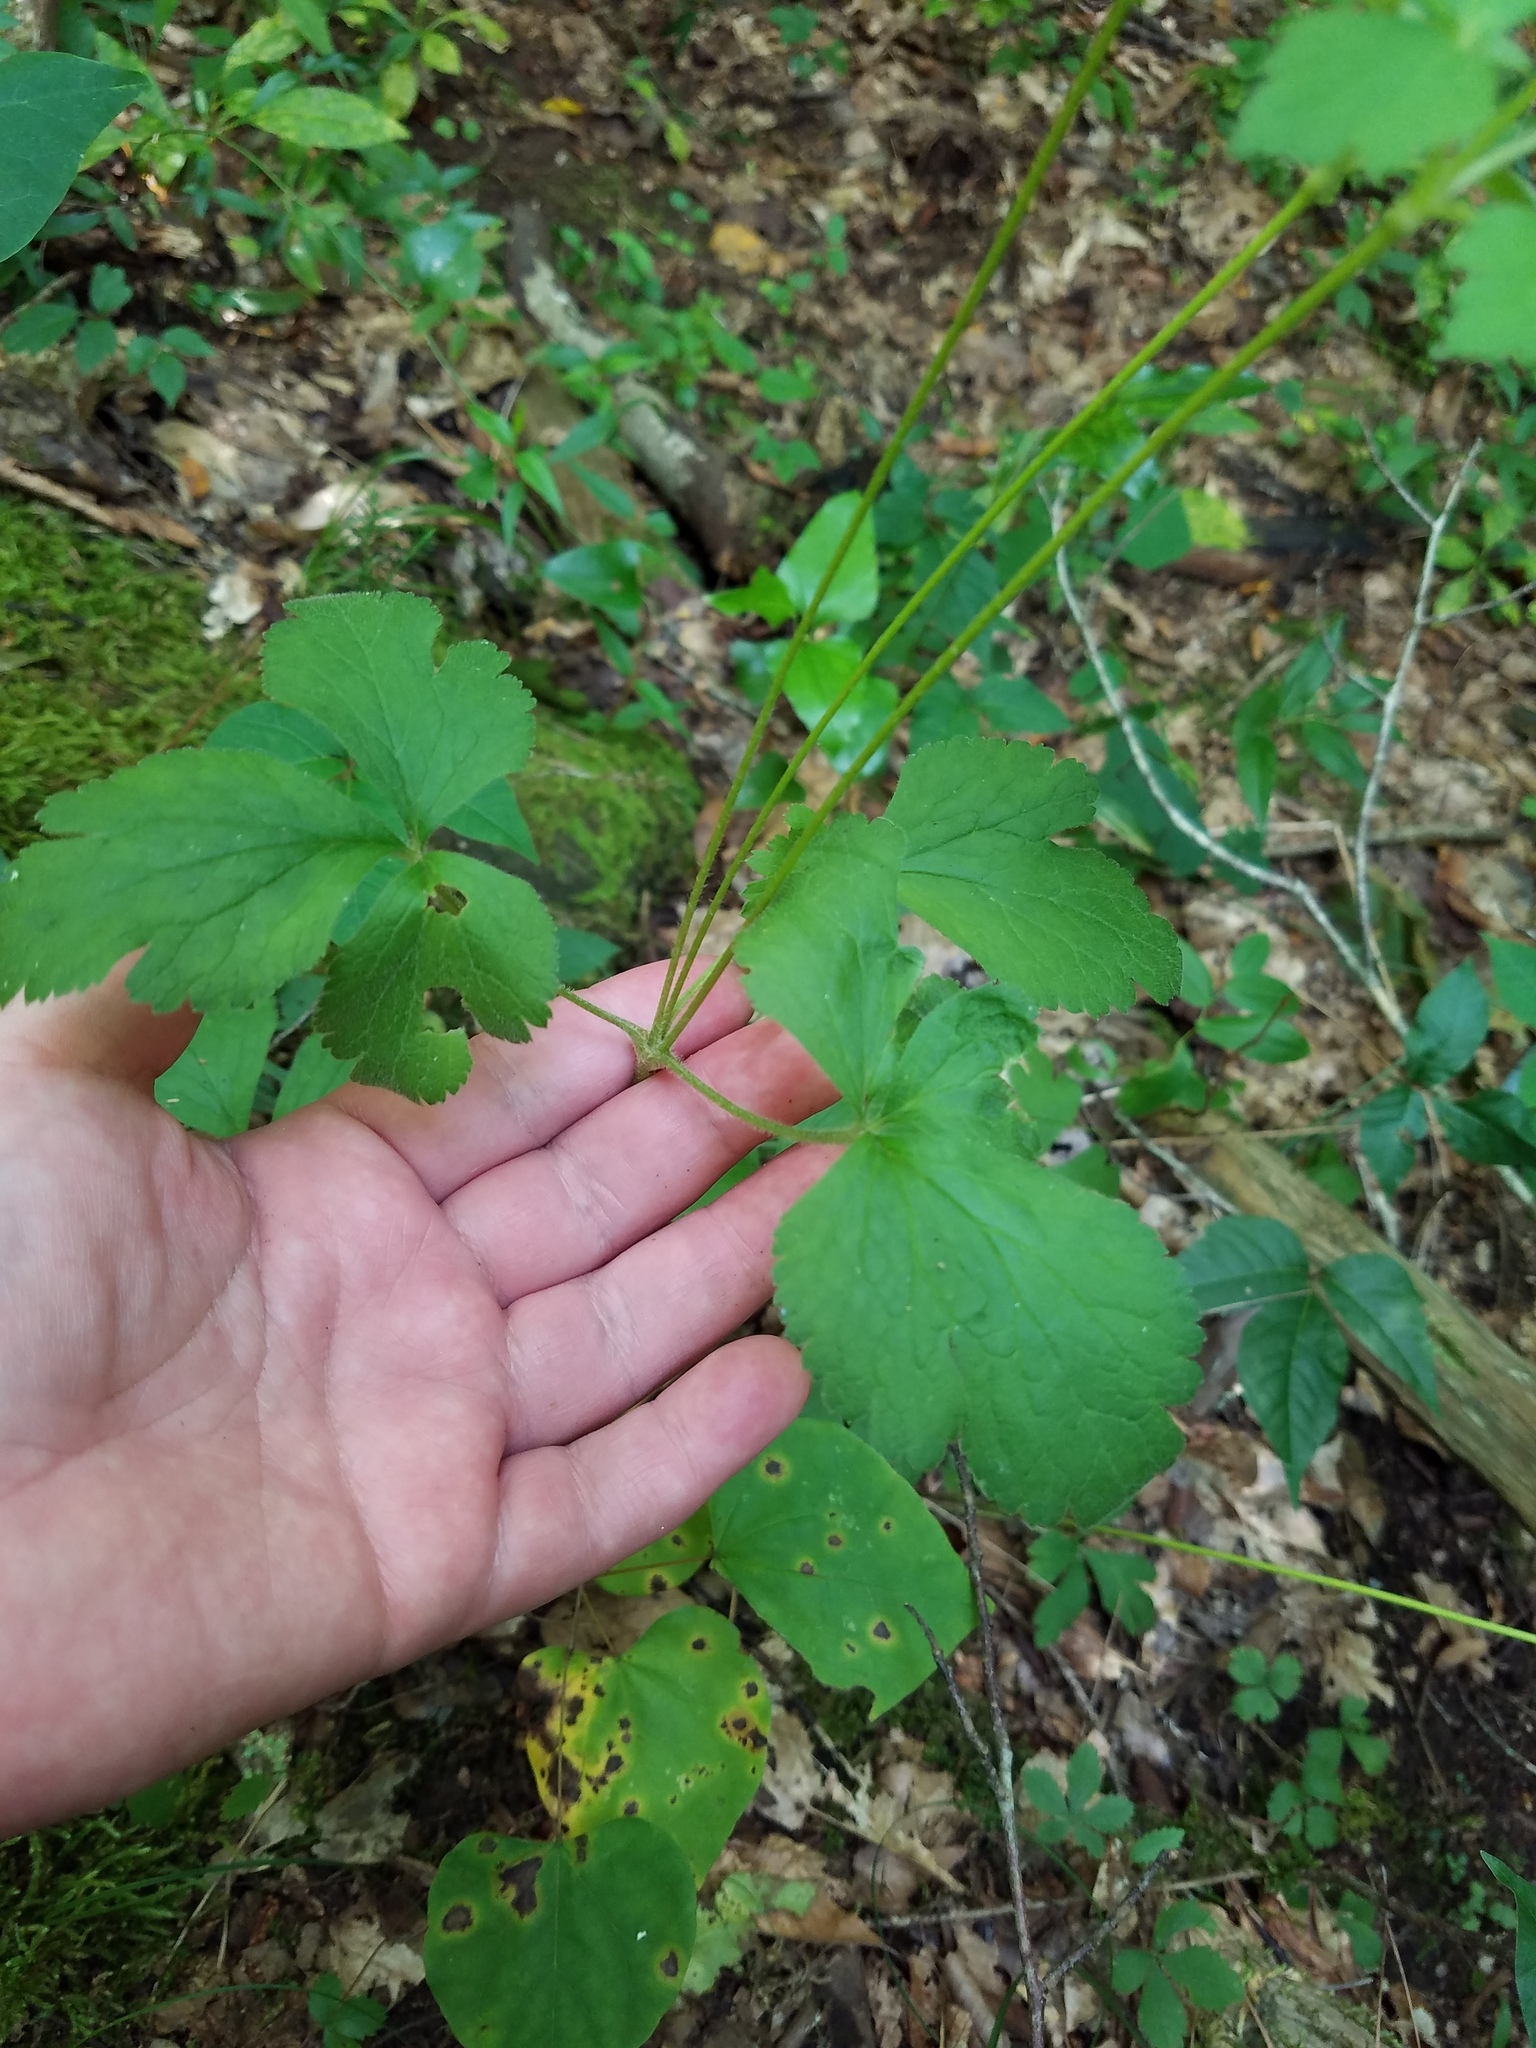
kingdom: Plantae
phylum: Tracheophyta
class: Magnoliopsida
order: Ranunculales
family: Ranunculaceae
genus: Anemone
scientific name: Anemone virginiana
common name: Tall anemone
